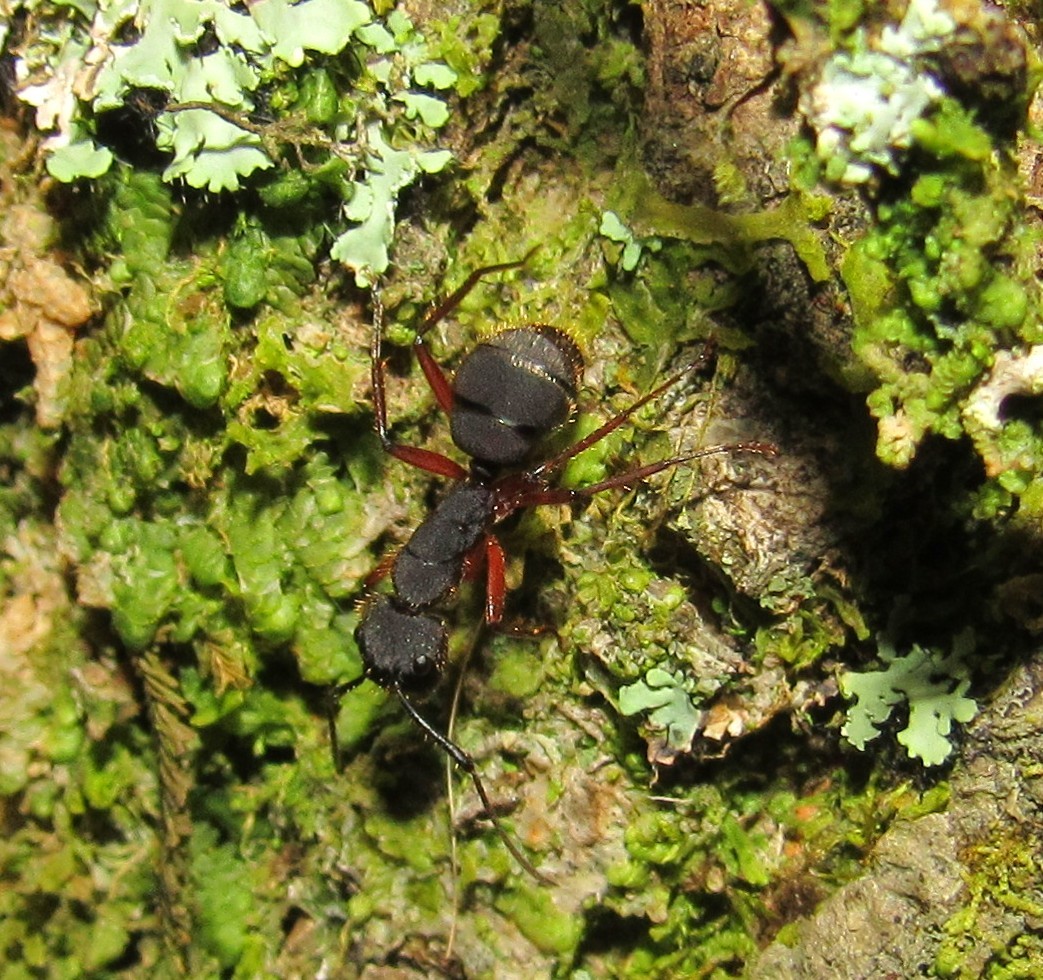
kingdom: Animalia
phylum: Arthropoda
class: Insecta
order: Hymenoptera
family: Formicidae
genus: Camponotus
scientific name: Camponotus rufipes
